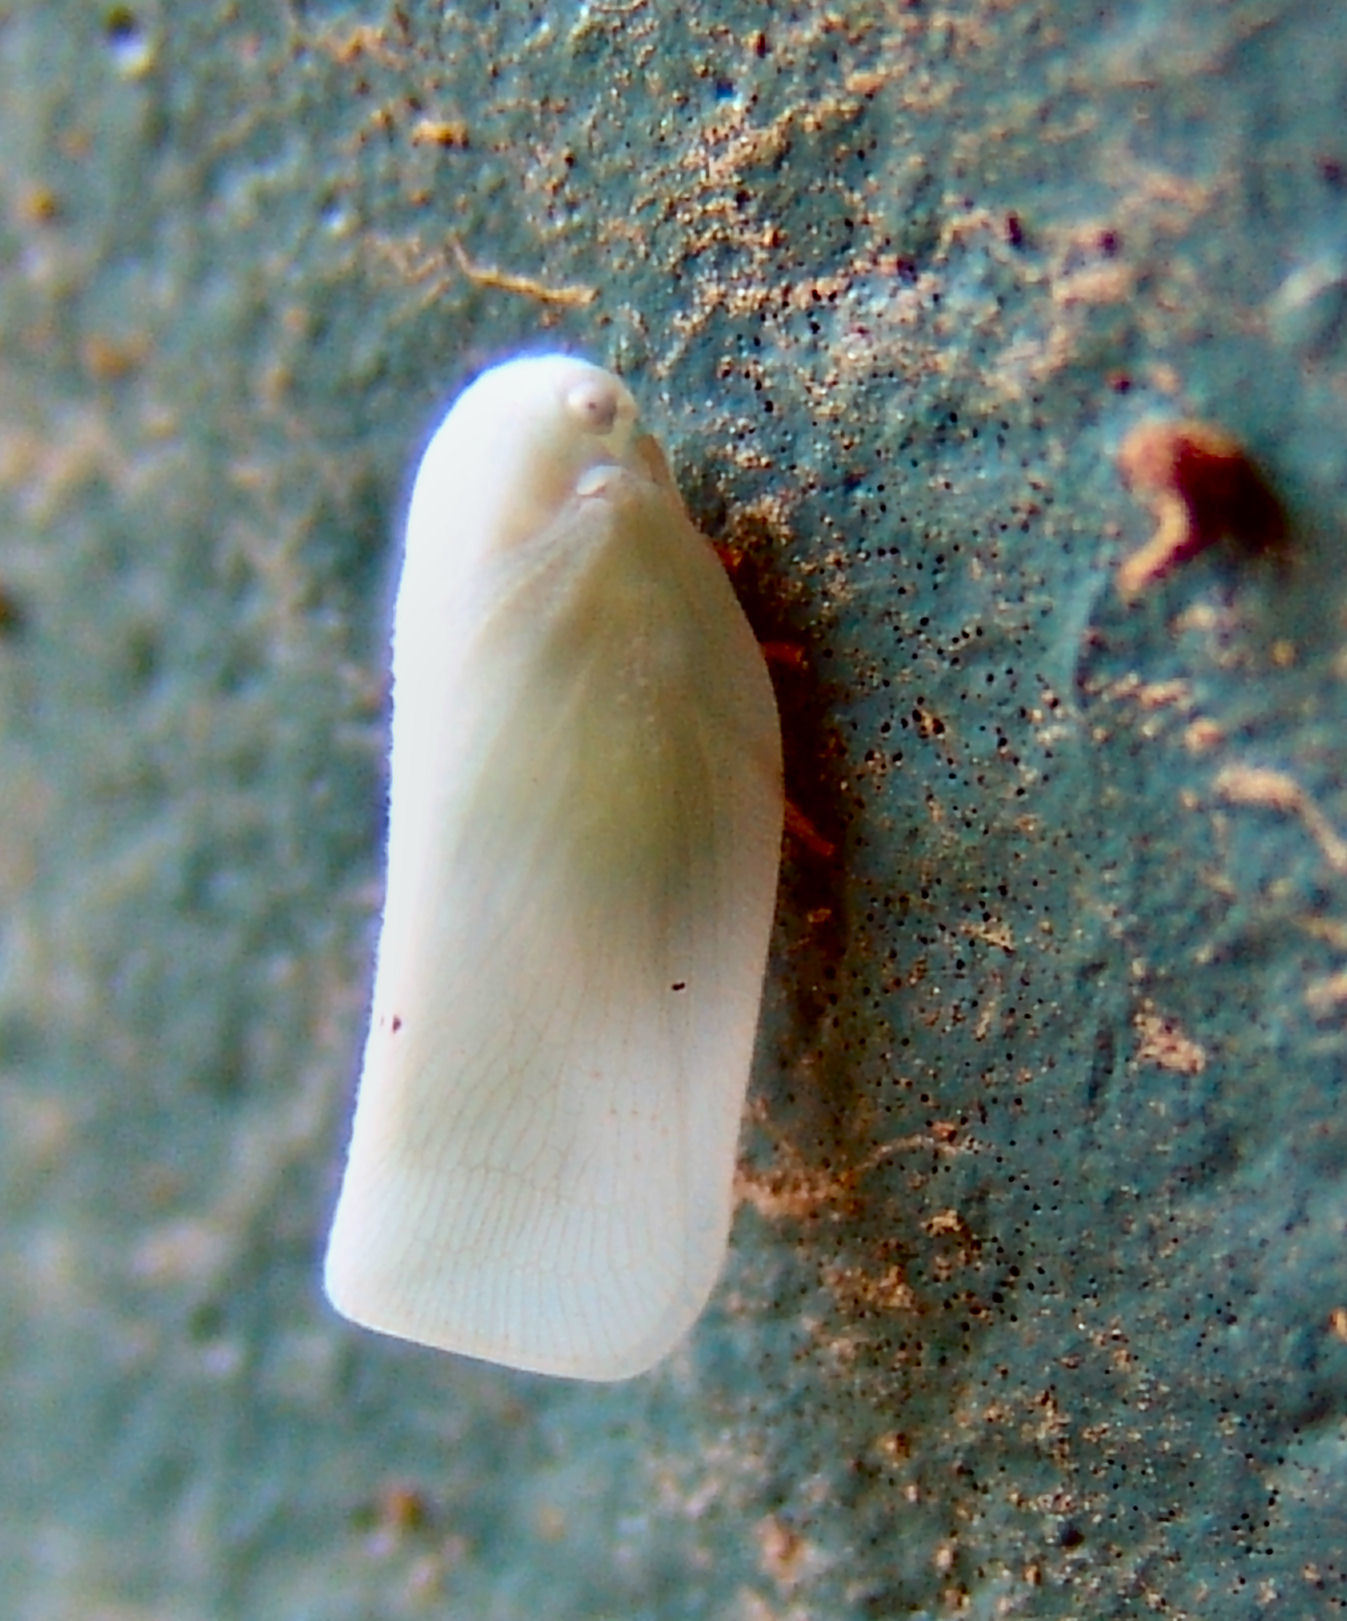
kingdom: Animalia
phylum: Arthropoda
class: Insecta
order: Hemiptera
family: Flatidae
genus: Flatormenis
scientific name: Flatormenis proxima
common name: Northern flatid planthopper
